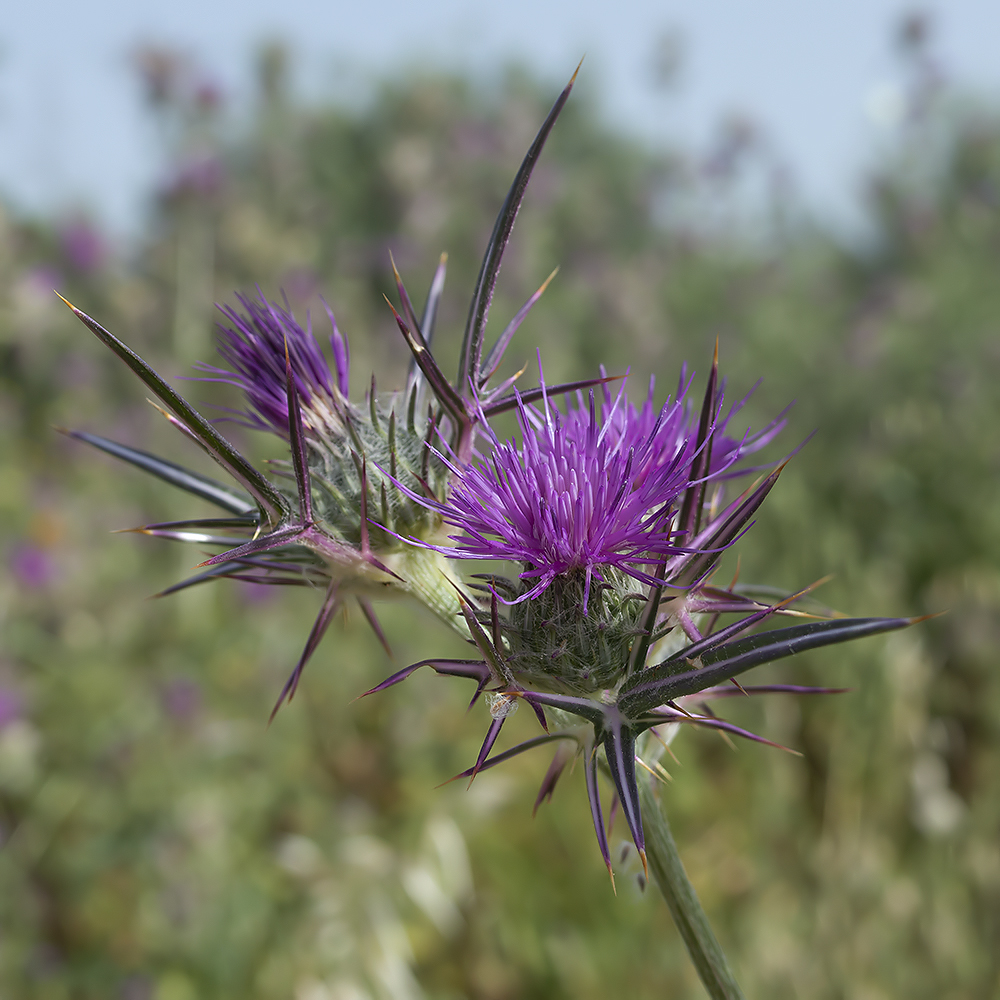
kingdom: Plantae
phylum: Tracheophyta
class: Magnoliopsida
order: Asterales
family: Asteraceae
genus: Notobasis
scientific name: Notobasis syriaca
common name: Syrian thistle
